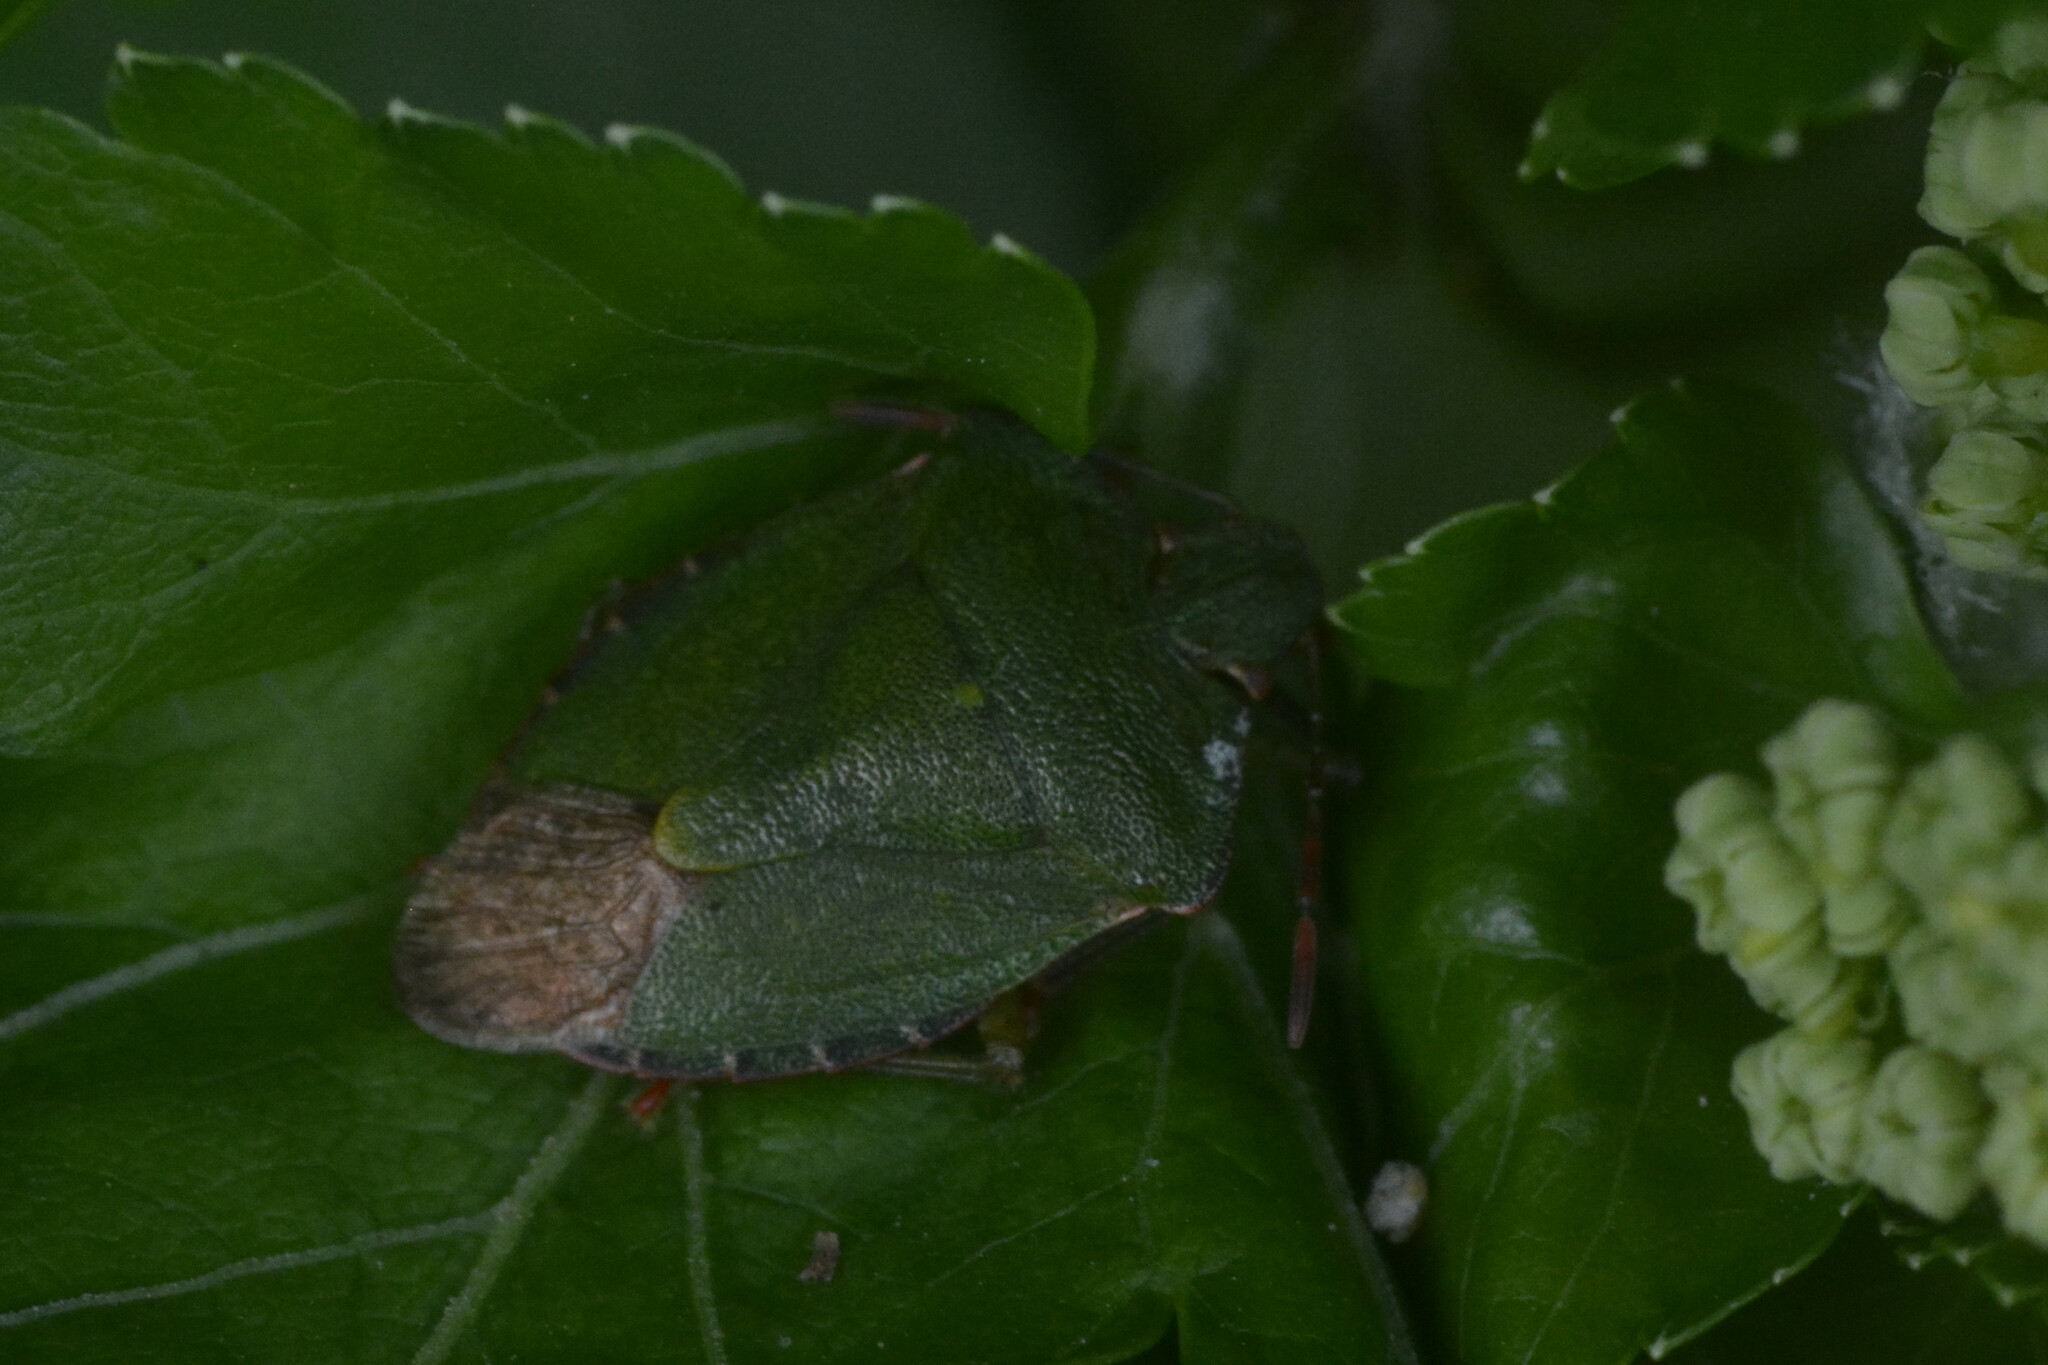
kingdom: Animalia
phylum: Arthropoda
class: Insecta
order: Hemiptera
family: Pentatomidae
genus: Palomena
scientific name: Palomena prasina
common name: Green shieldbug
